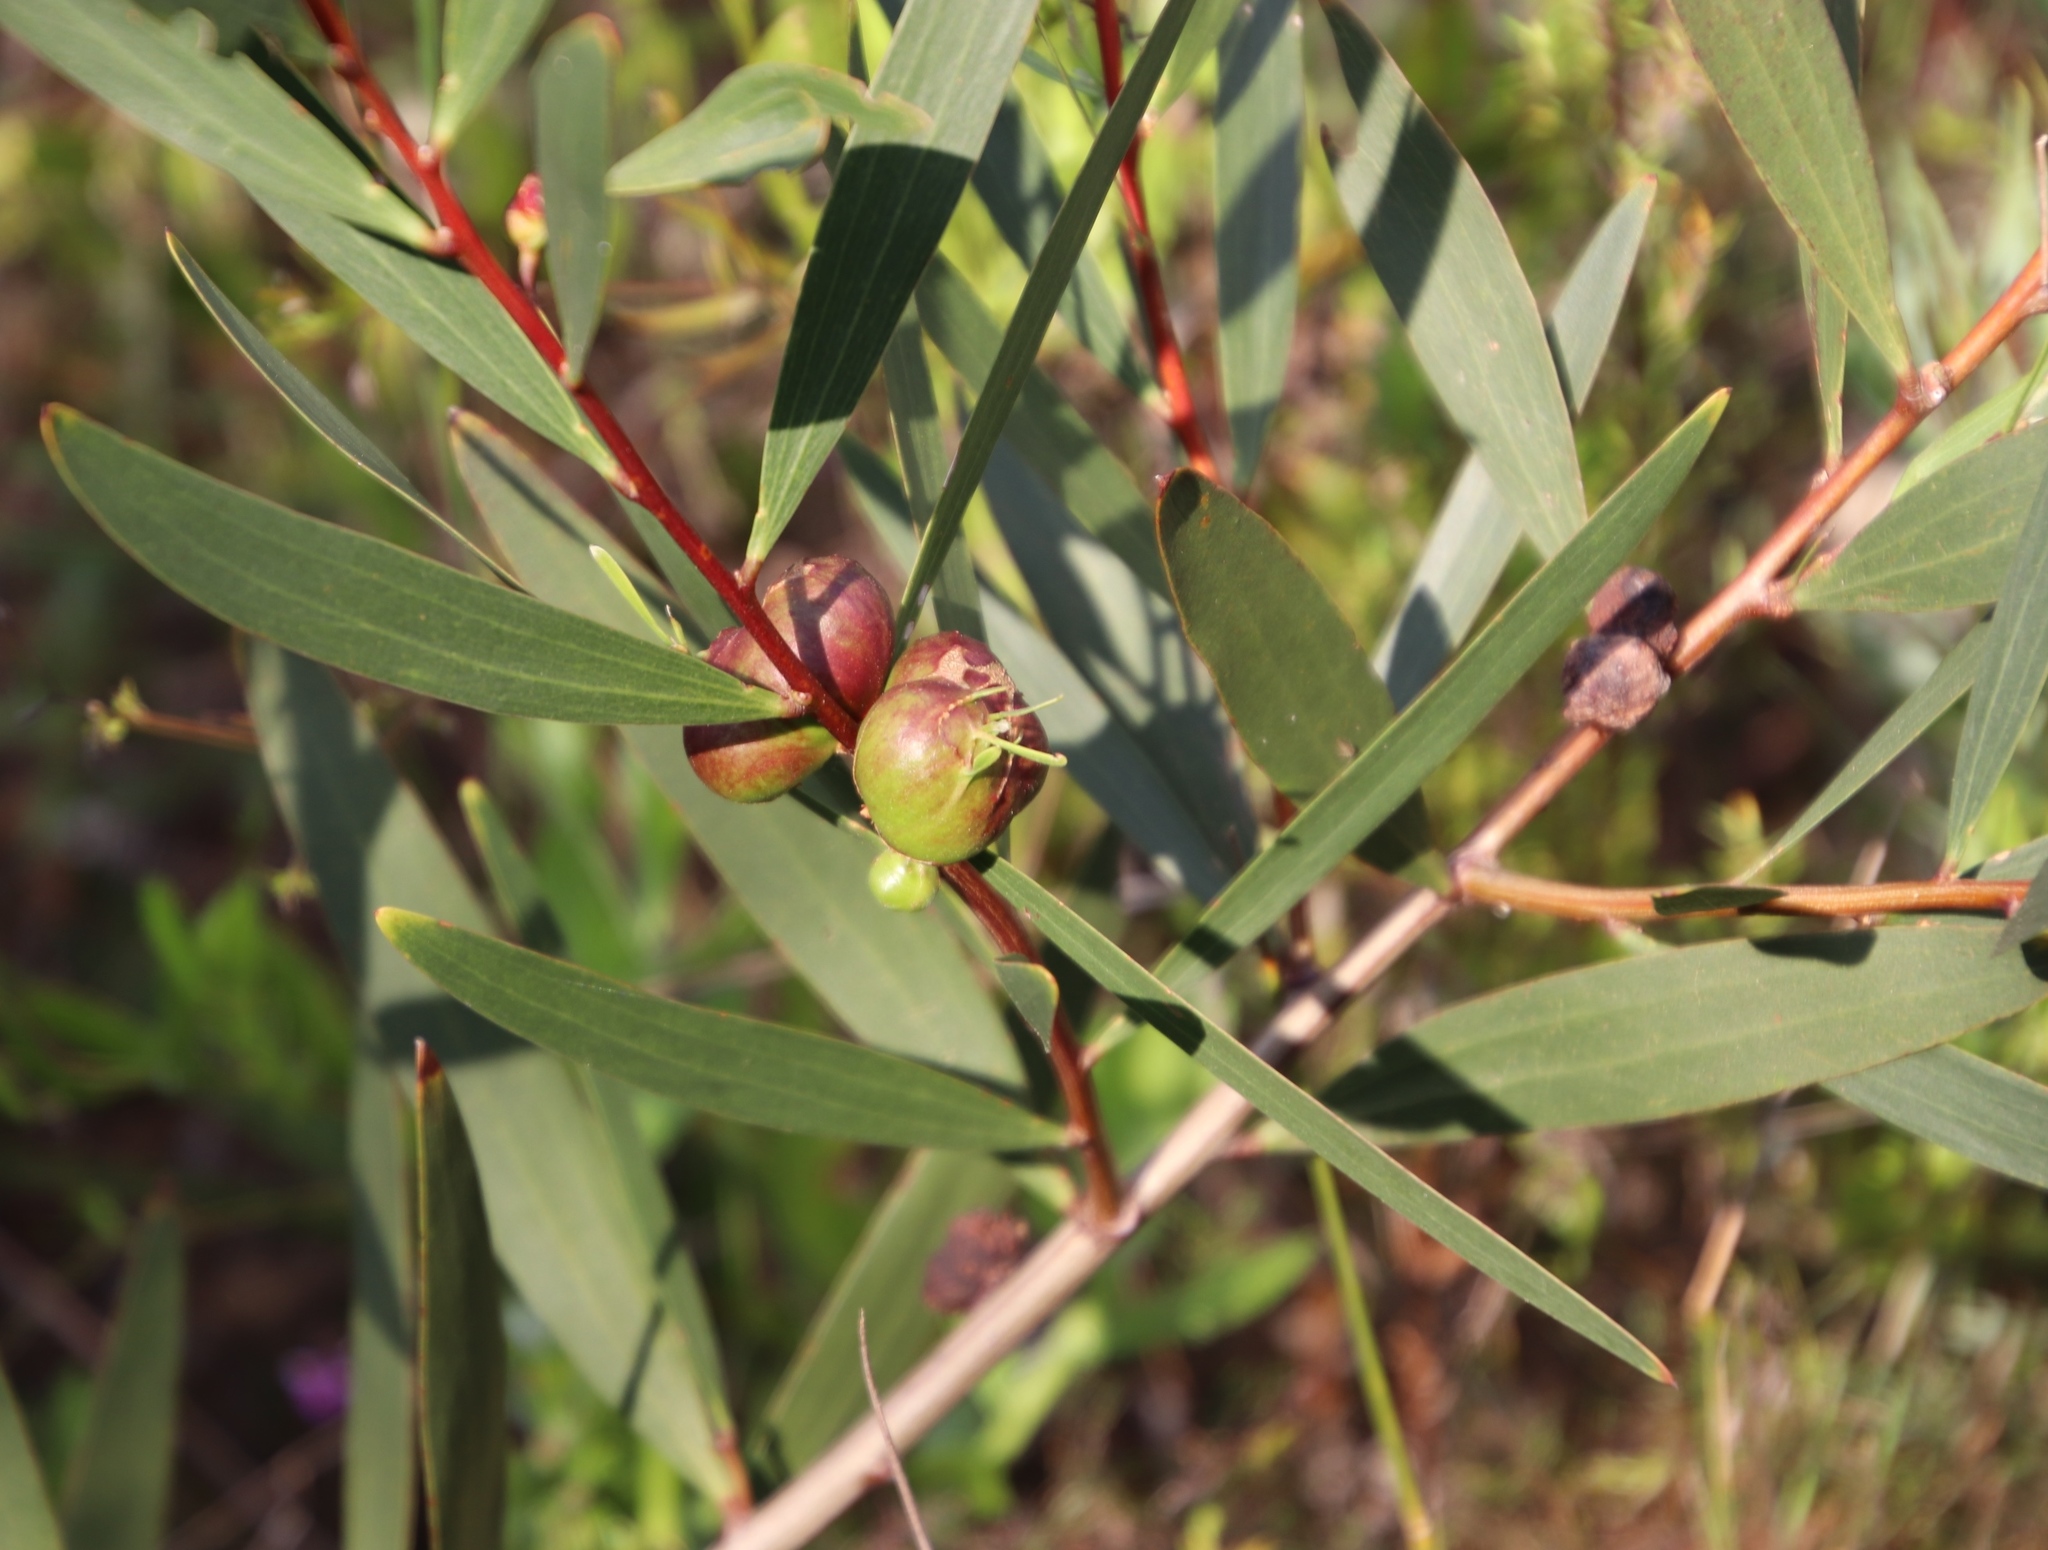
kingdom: Animalia
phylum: Arthropoda
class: Insecta
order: Hymenoptera
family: Pteromalidae
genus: Trichilogaster
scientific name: Trichilogaster acaciaelongifoliae
